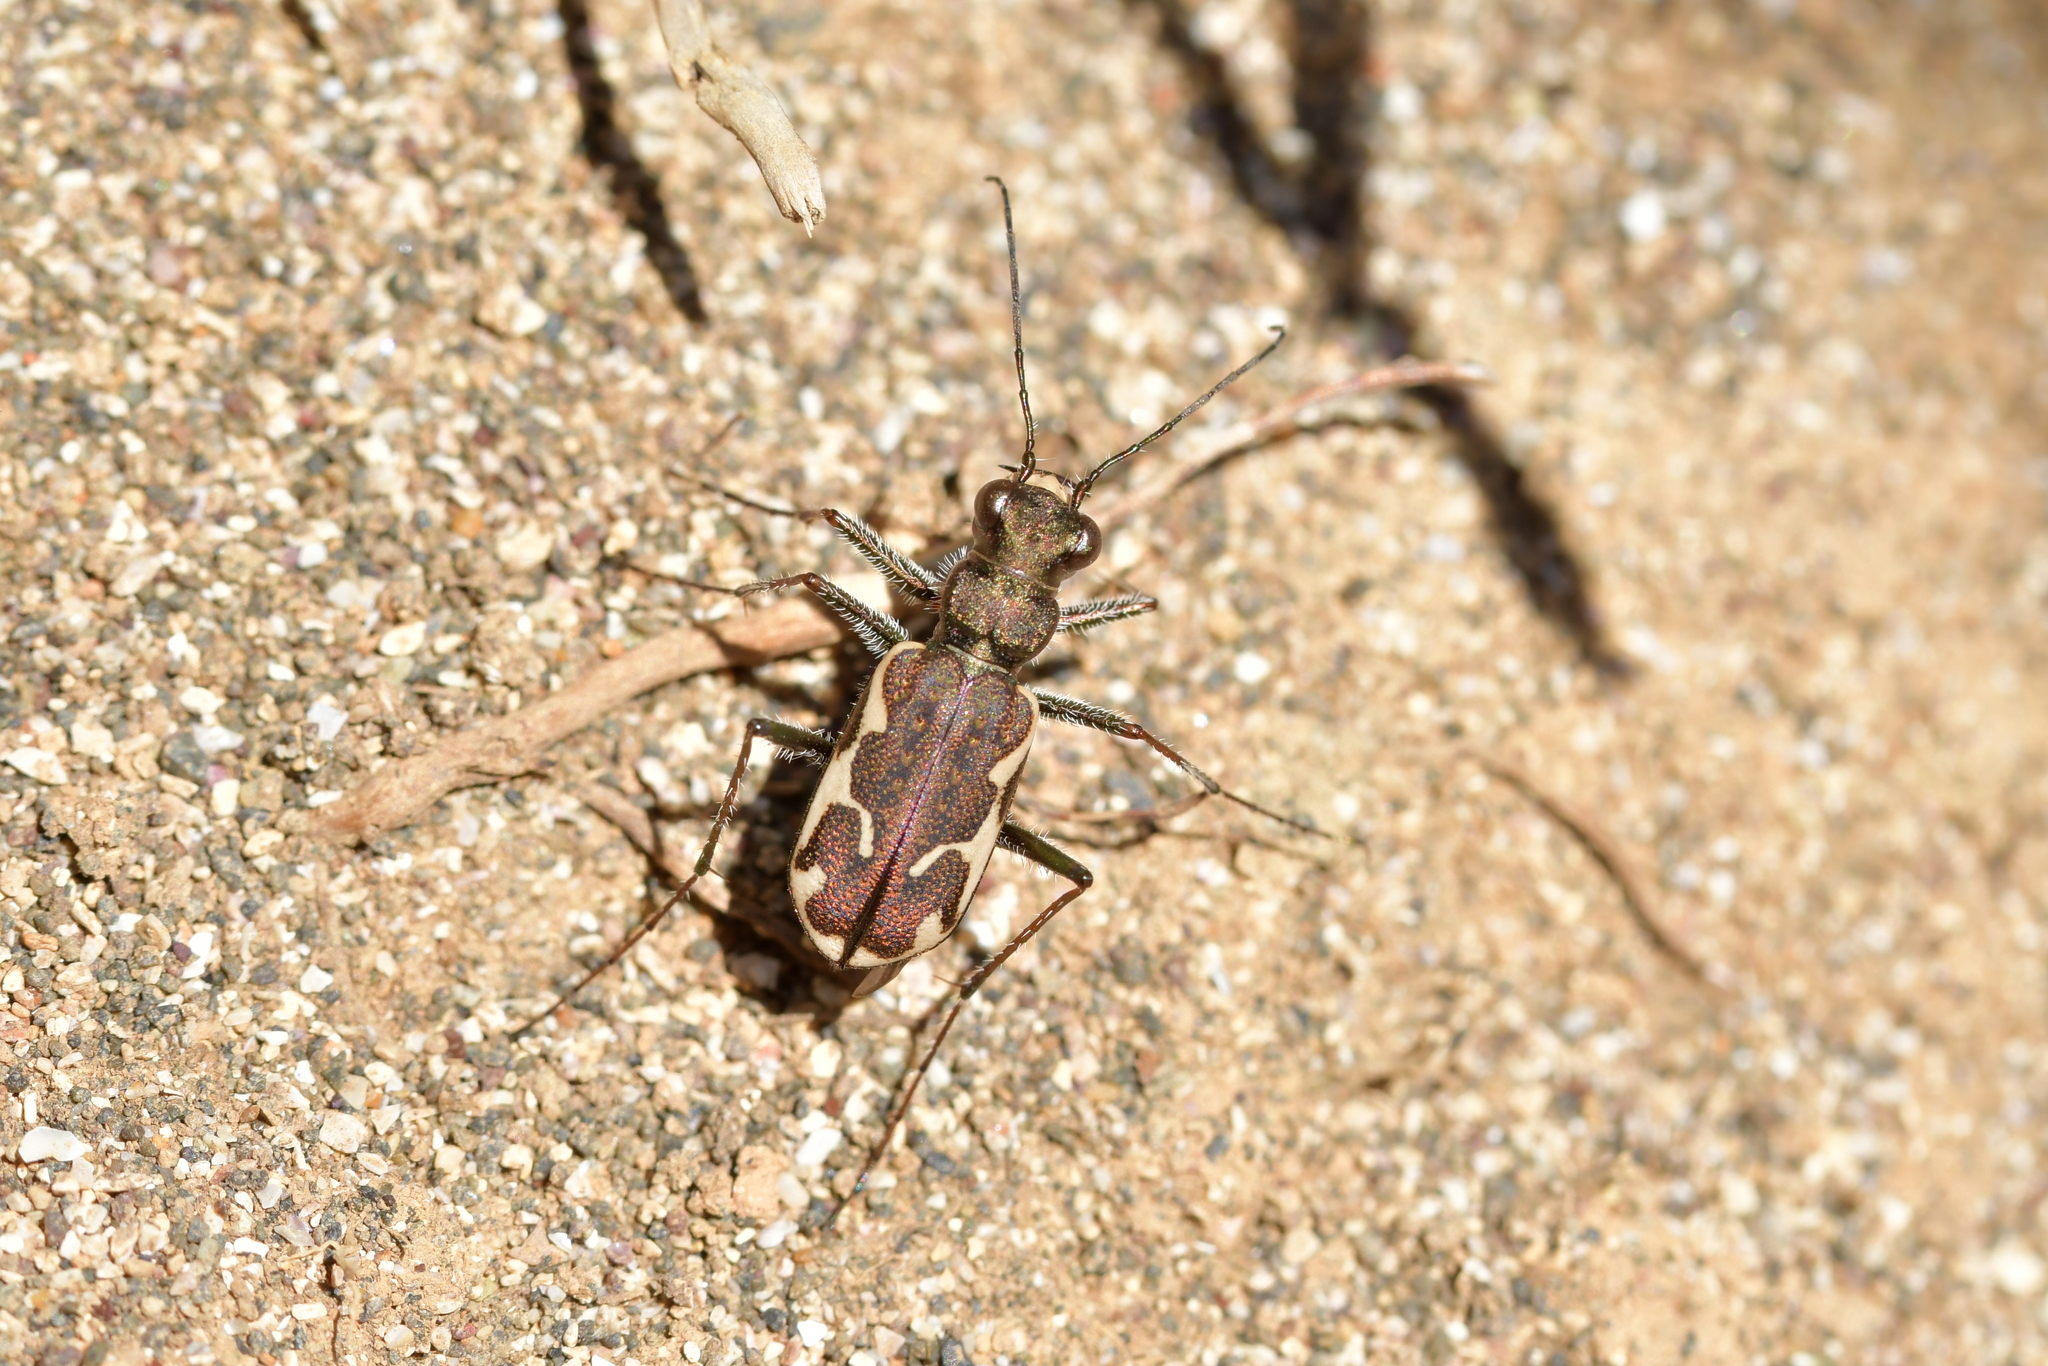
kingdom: Animalia
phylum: Arthropoda
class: Insecta
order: Coleoptera
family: Carabidae
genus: Neocicindela
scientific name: Neocicindela tuberculata
